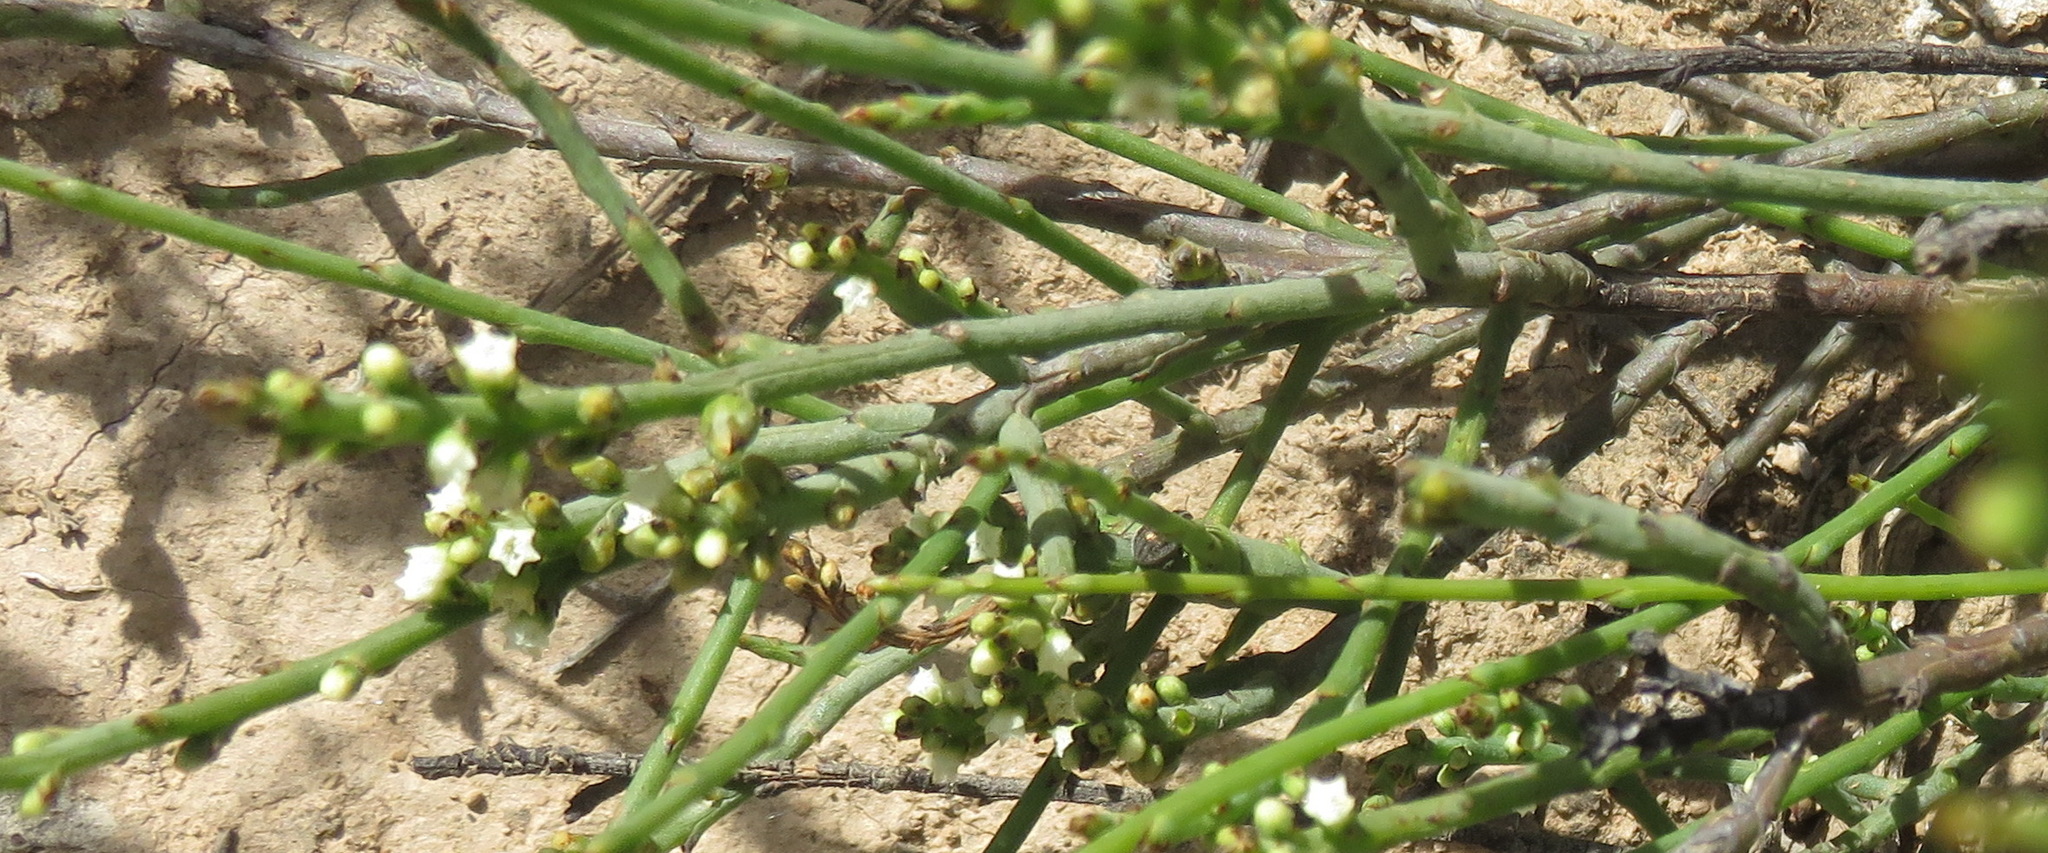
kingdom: Plantae
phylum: Tracheophyta
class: Magnoliopsida
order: Santalales
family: Thesiaceae
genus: Thesium
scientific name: Thesium flexuosum
